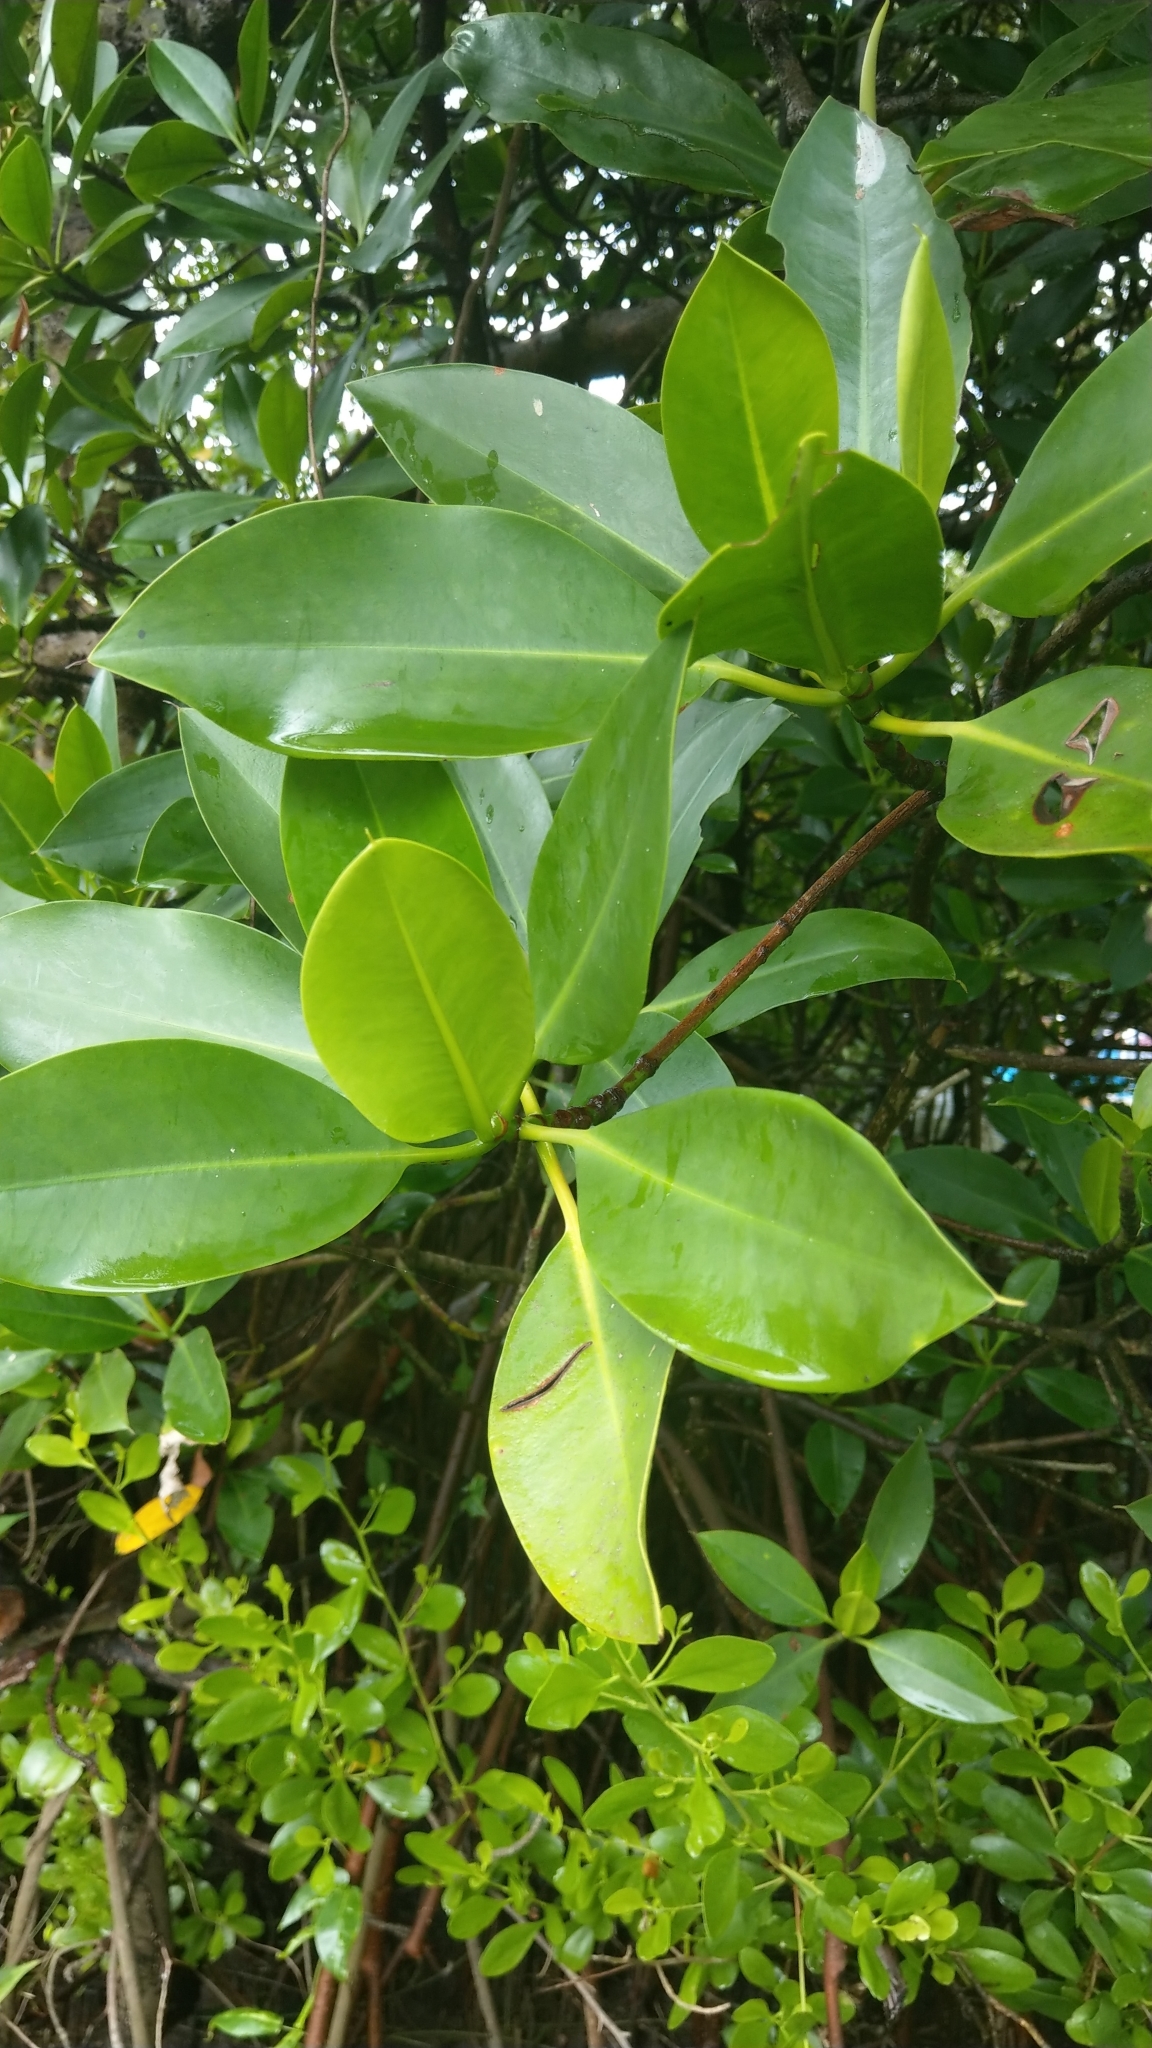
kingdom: Plantae
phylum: Tracheophyta
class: Magnoliopsida
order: Malpighiales
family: Rhizophoraceae
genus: Rhizophora
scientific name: Rhizophora stylosa
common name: Red mangrove
